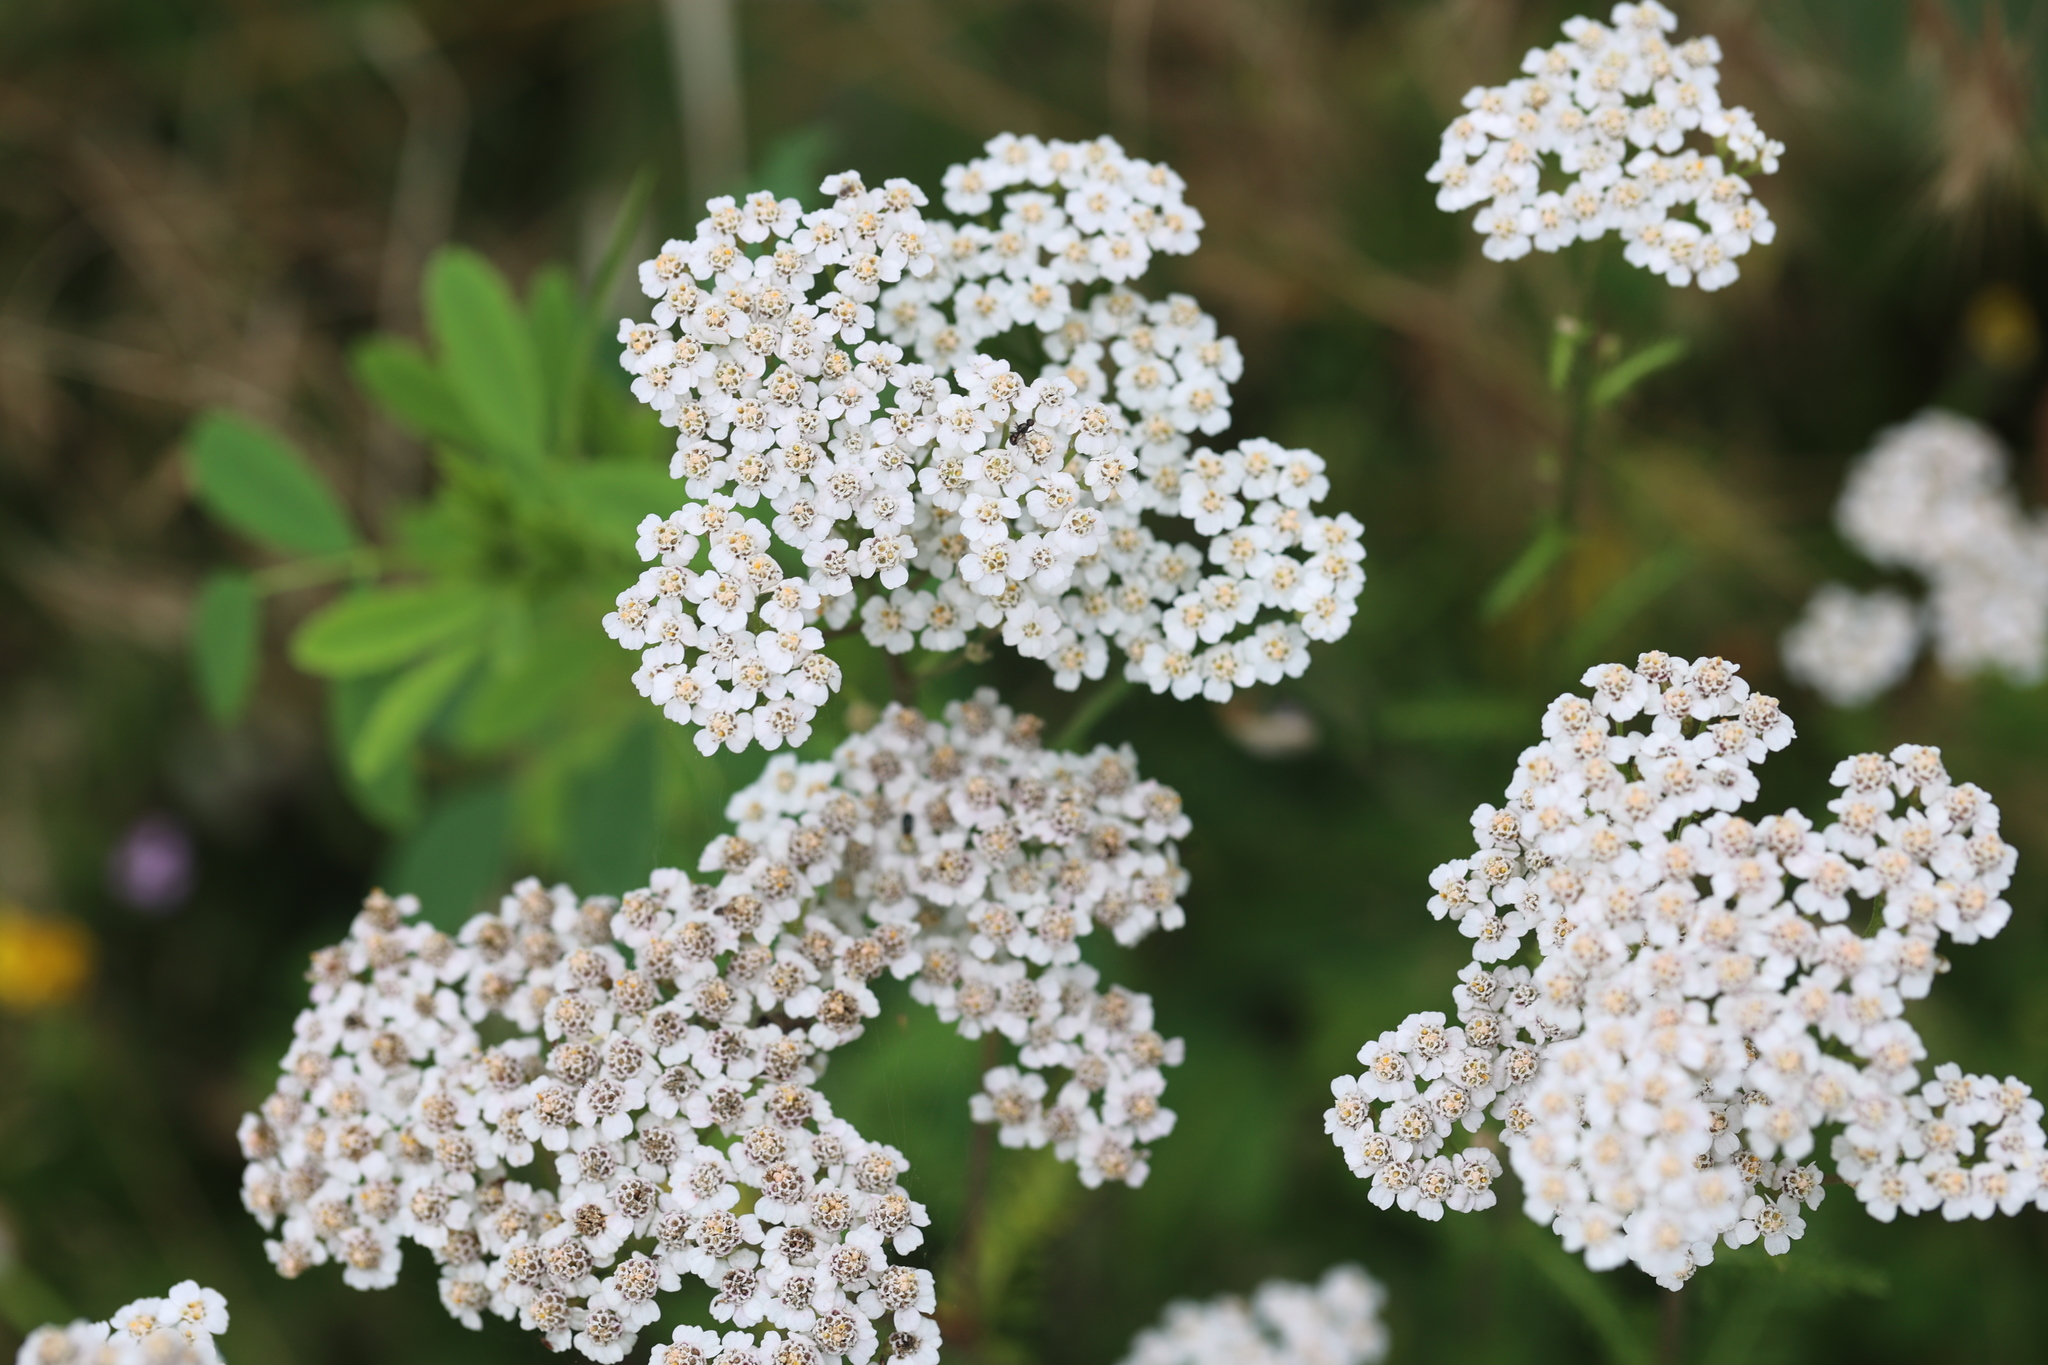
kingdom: Plantae
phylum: Tracheophyta
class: Magnoliopsida
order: Asterales
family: Asteraceae
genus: Achillea
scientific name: Achillea millefolium
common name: Yarrow
